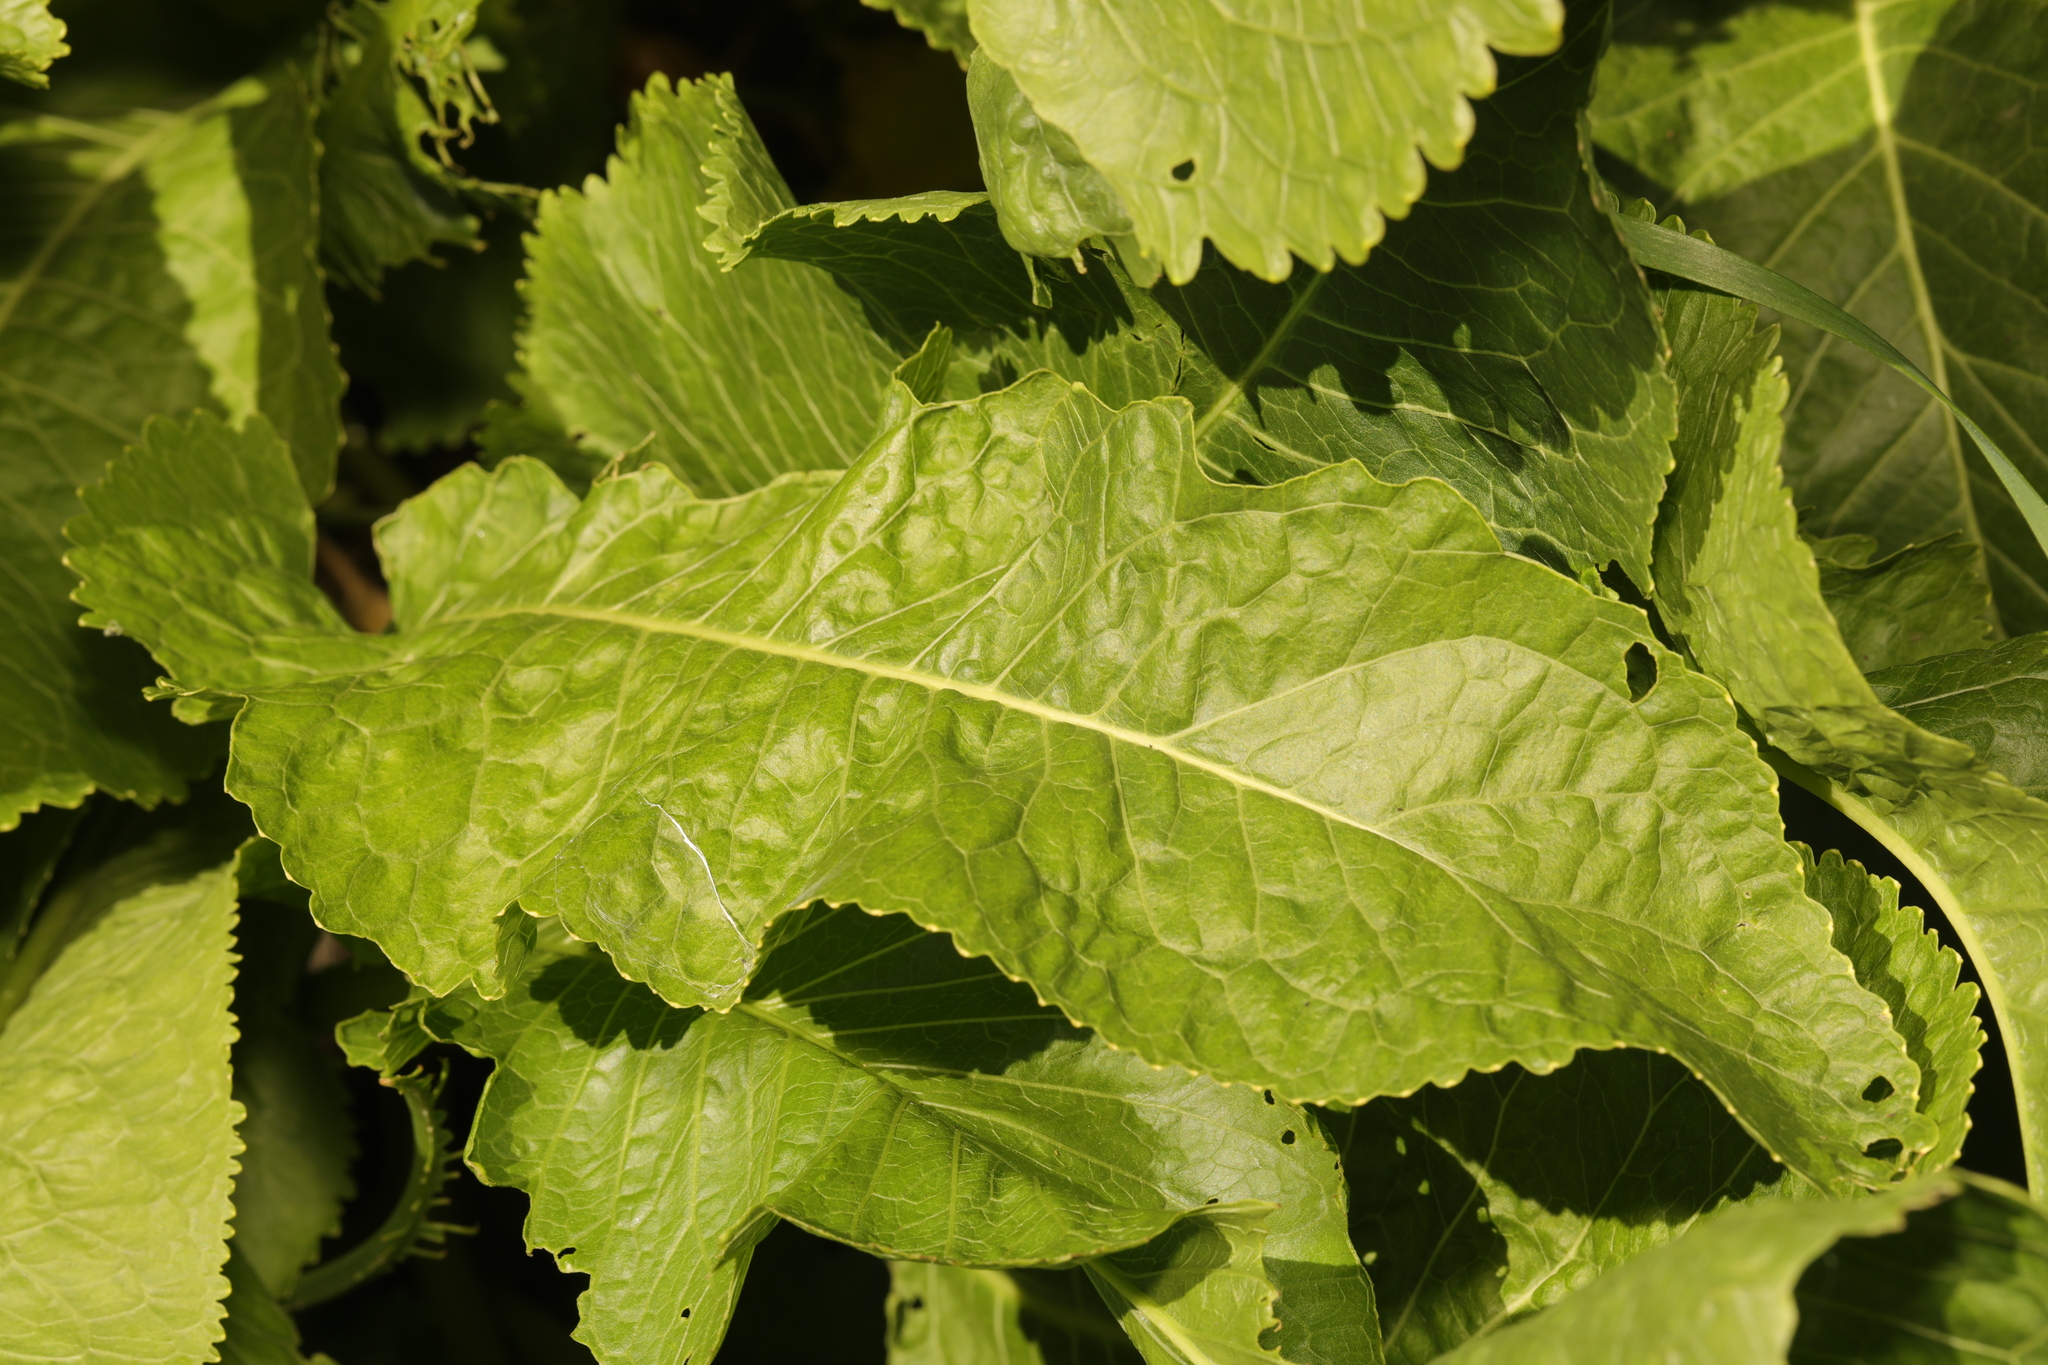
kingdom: Plantae
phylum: Tracheophyta
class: Magnoliopsida
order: Brassicales
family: Brassicaceae
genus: Armoracia
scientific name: Armoracia rusticana
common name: Horseradish
